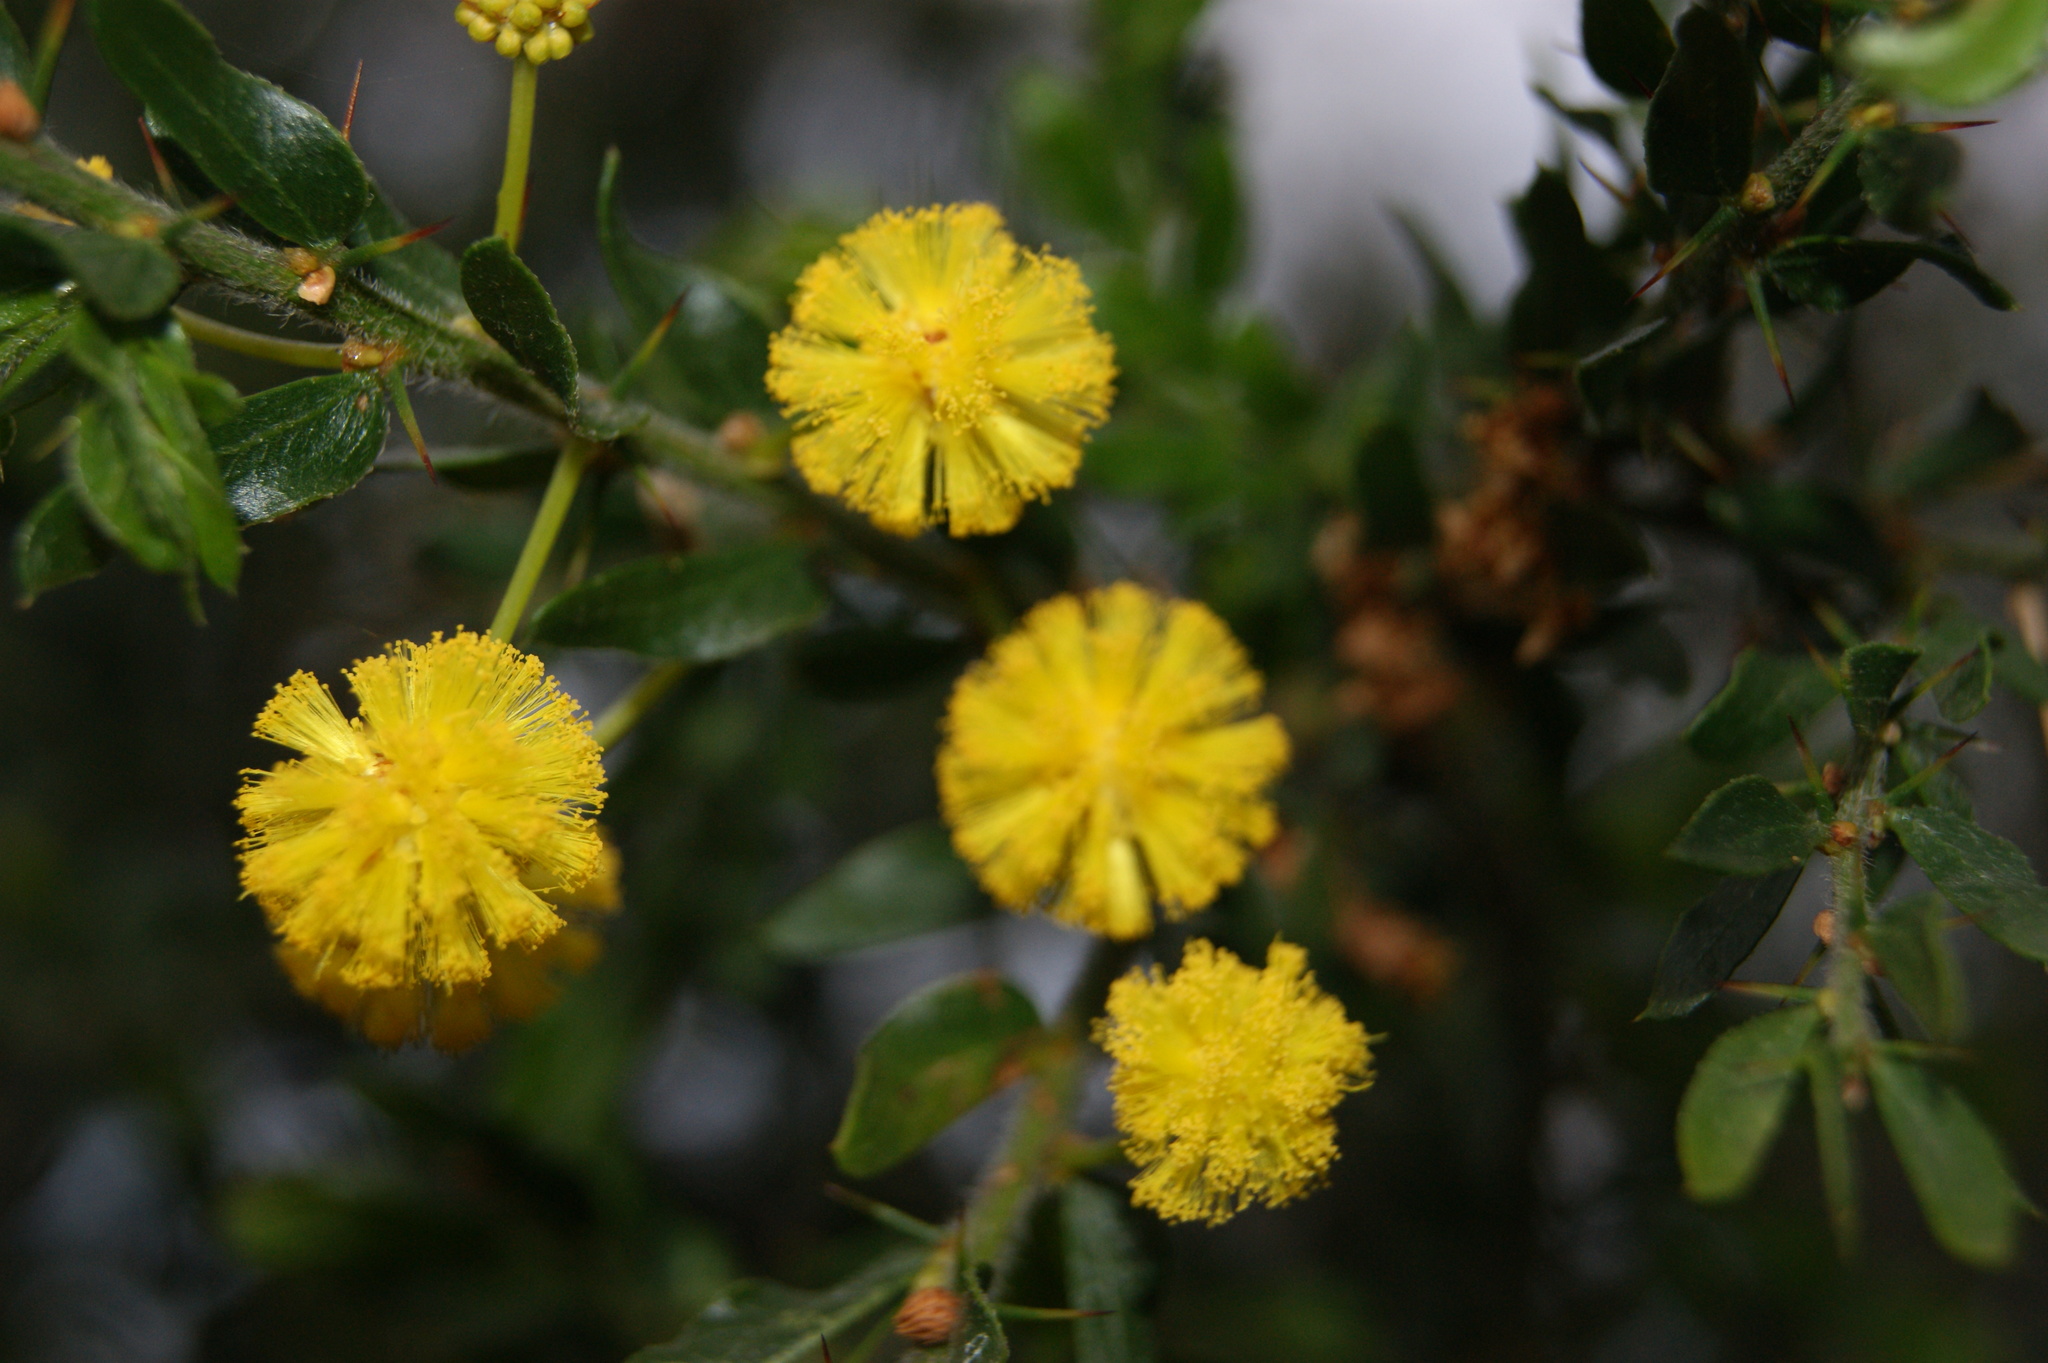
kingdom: Plantae
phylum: Tracheophyta
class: Magnoliopsida
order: Fabales
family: Fabaceae
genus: Acacia
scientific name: Acacia paradoxa
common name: Paradox acacia
